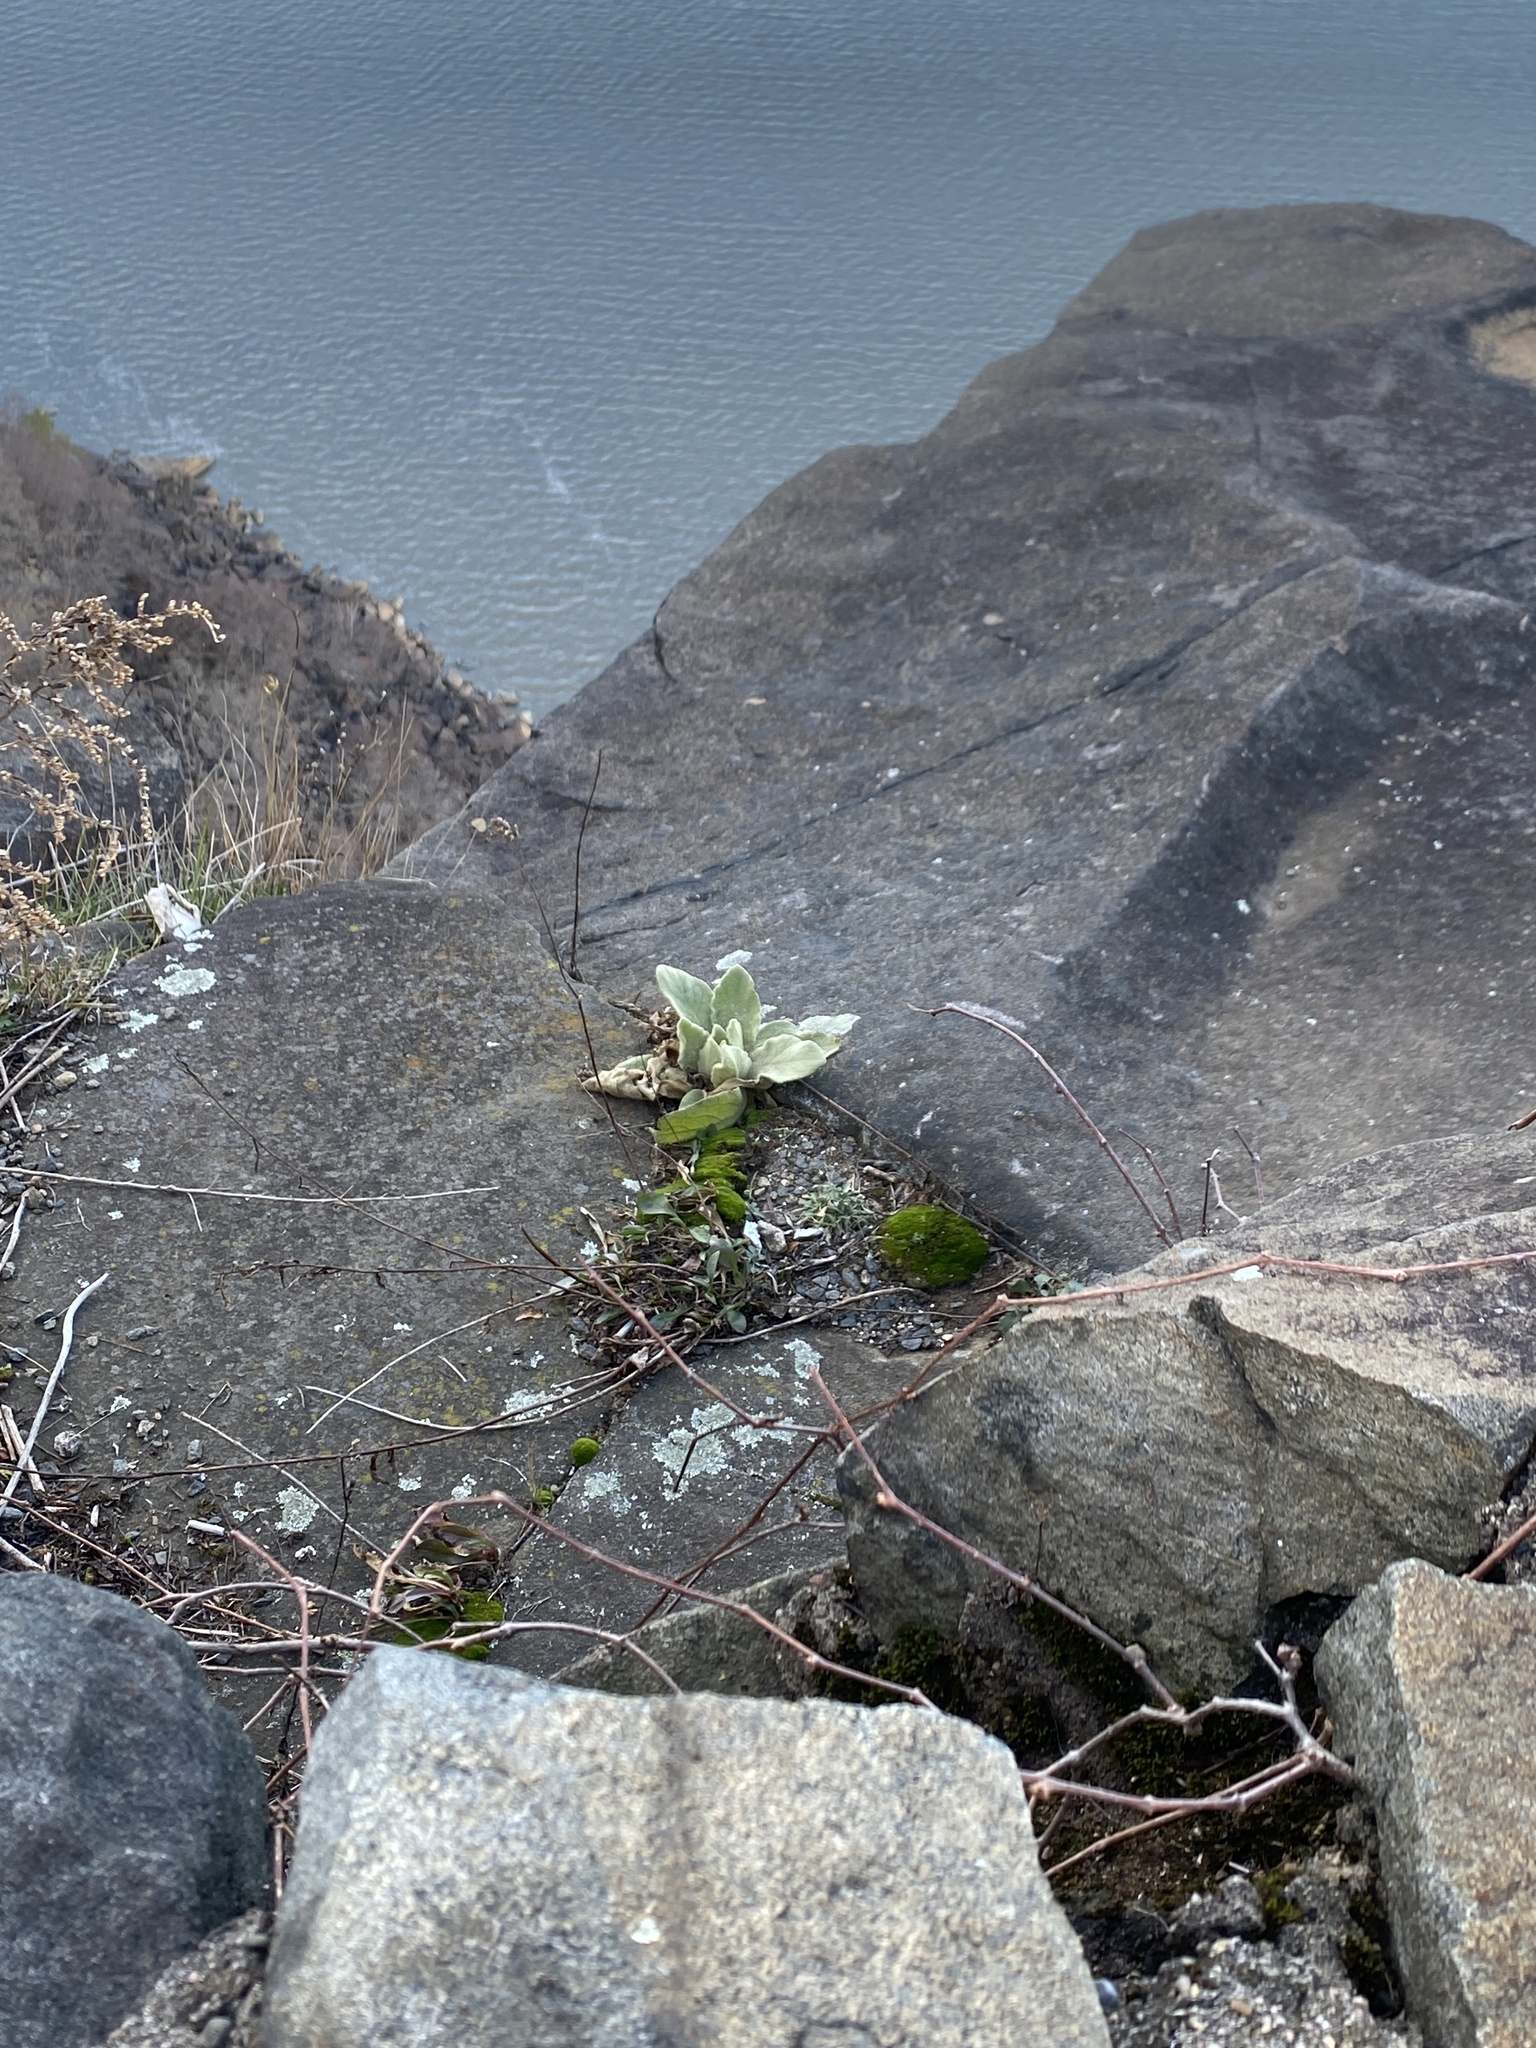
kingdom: Plantae
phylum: Tracheophyta
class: Magnoliopsida
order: Lamiales
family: Scrophulariaceae
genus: Verbascum
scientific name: Verbascum thapsus
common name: Common mullein
